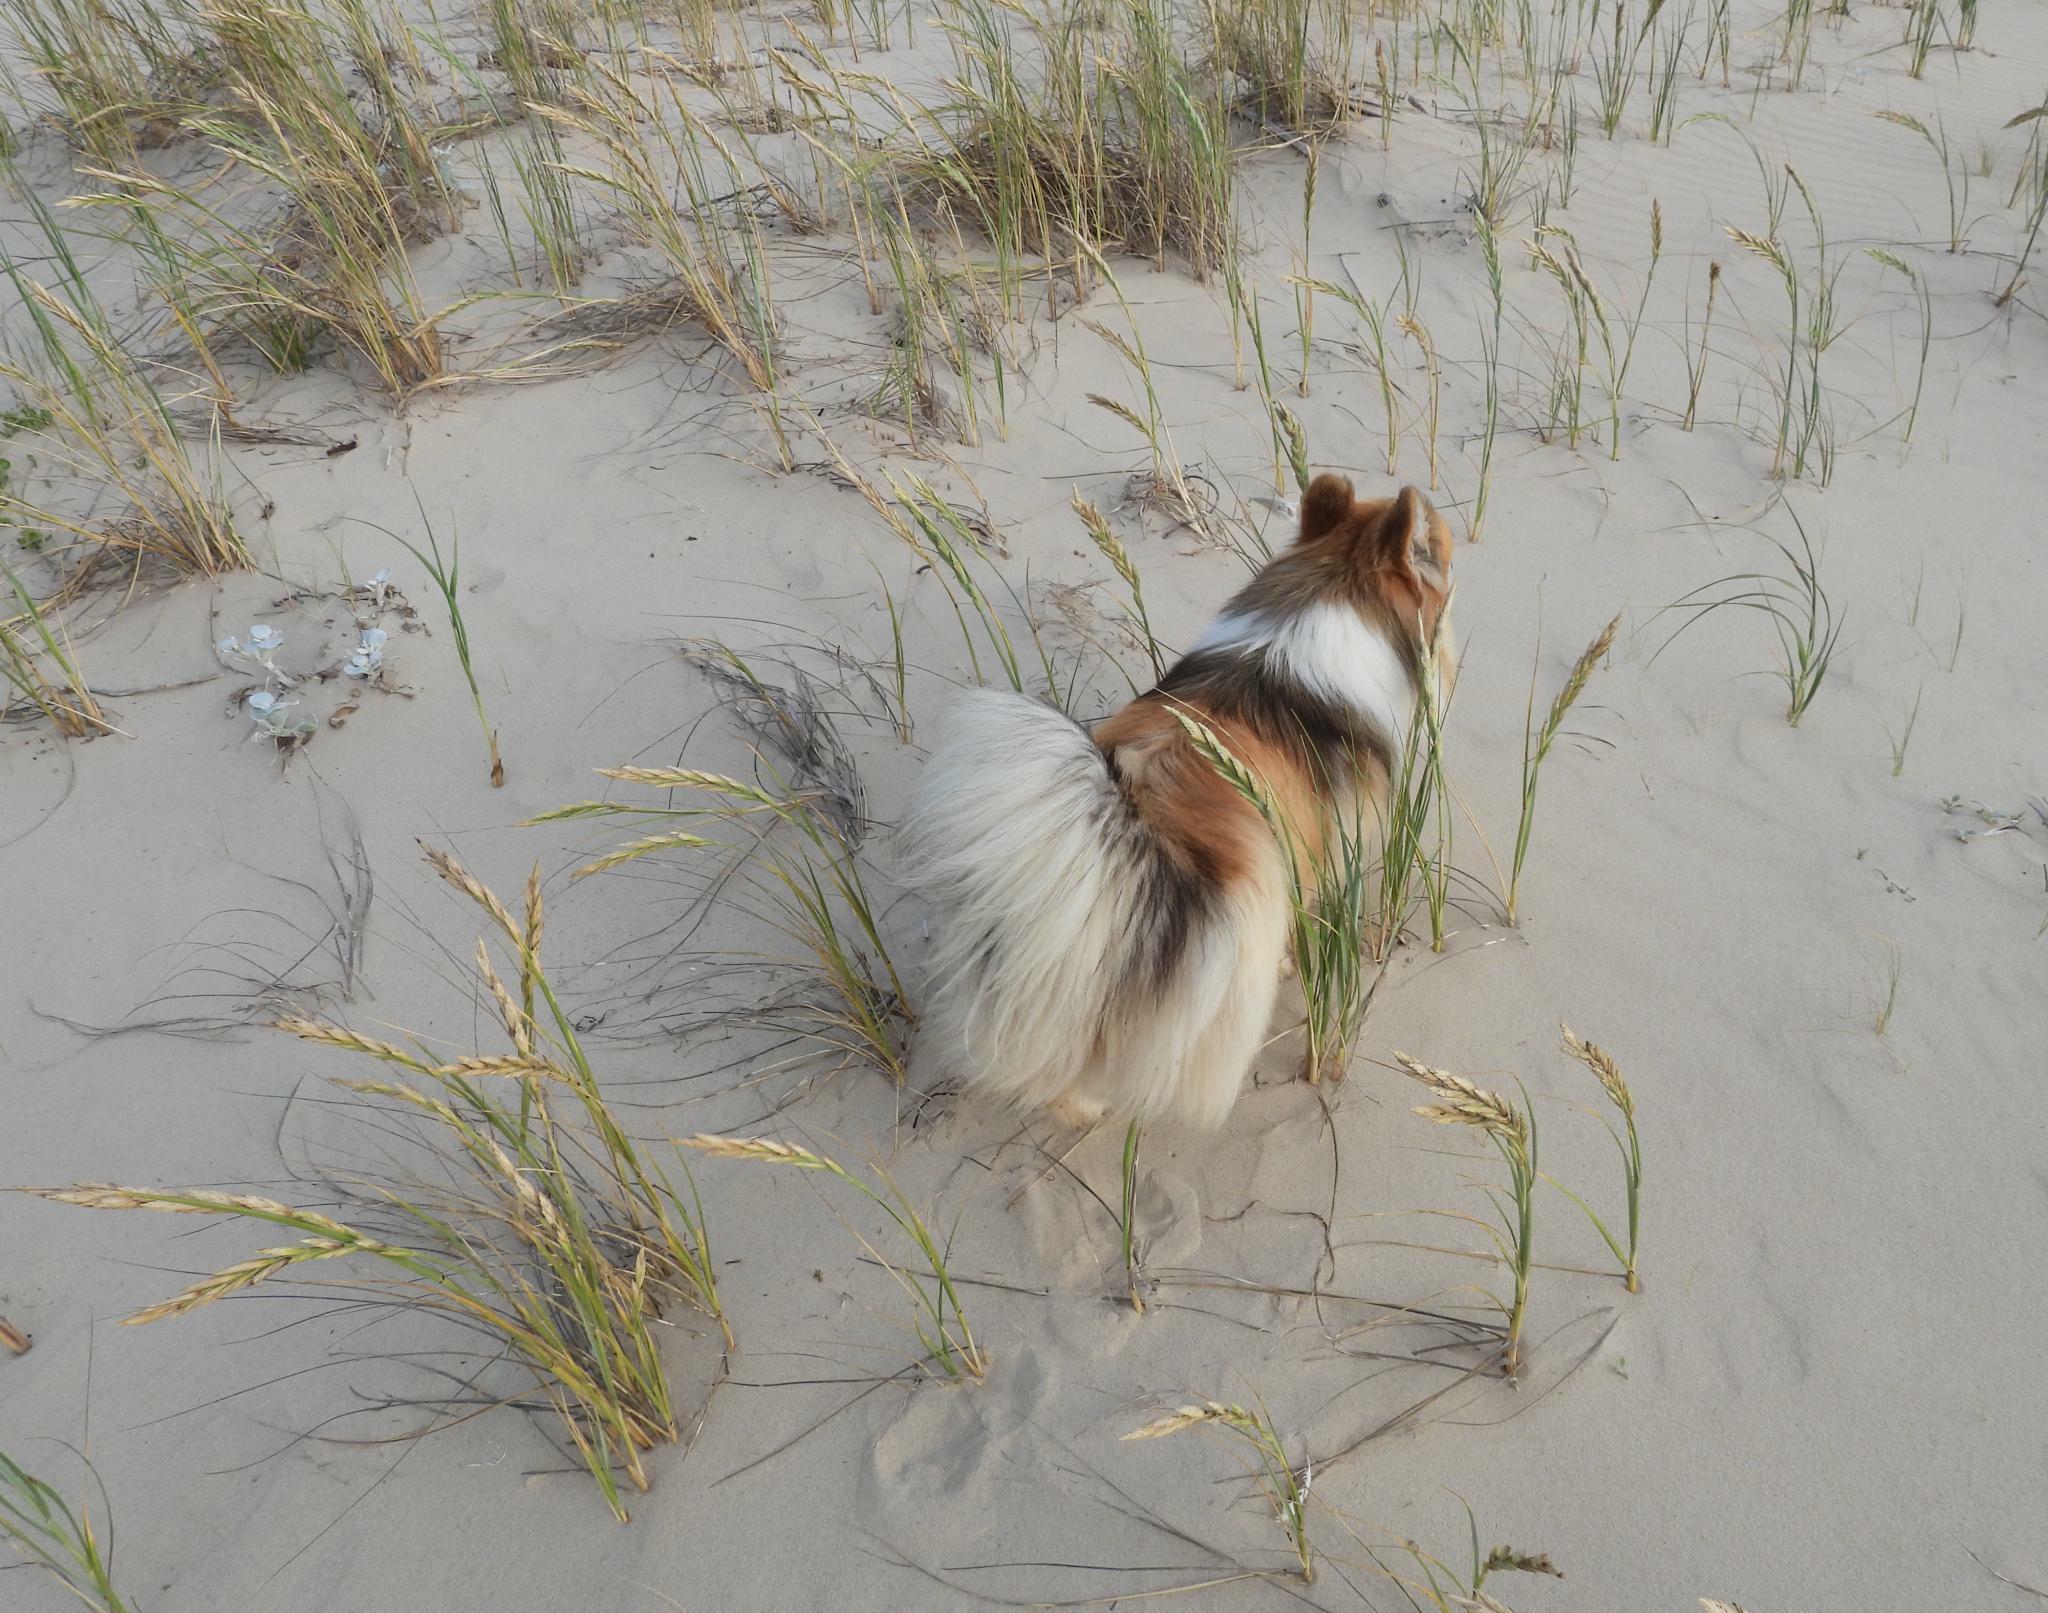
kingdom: Plantae
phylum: Tracheophyta
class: Liliopsida
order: Poales
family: Poaceae
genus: Thinopyrum
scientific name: Thinopyrum distichum
